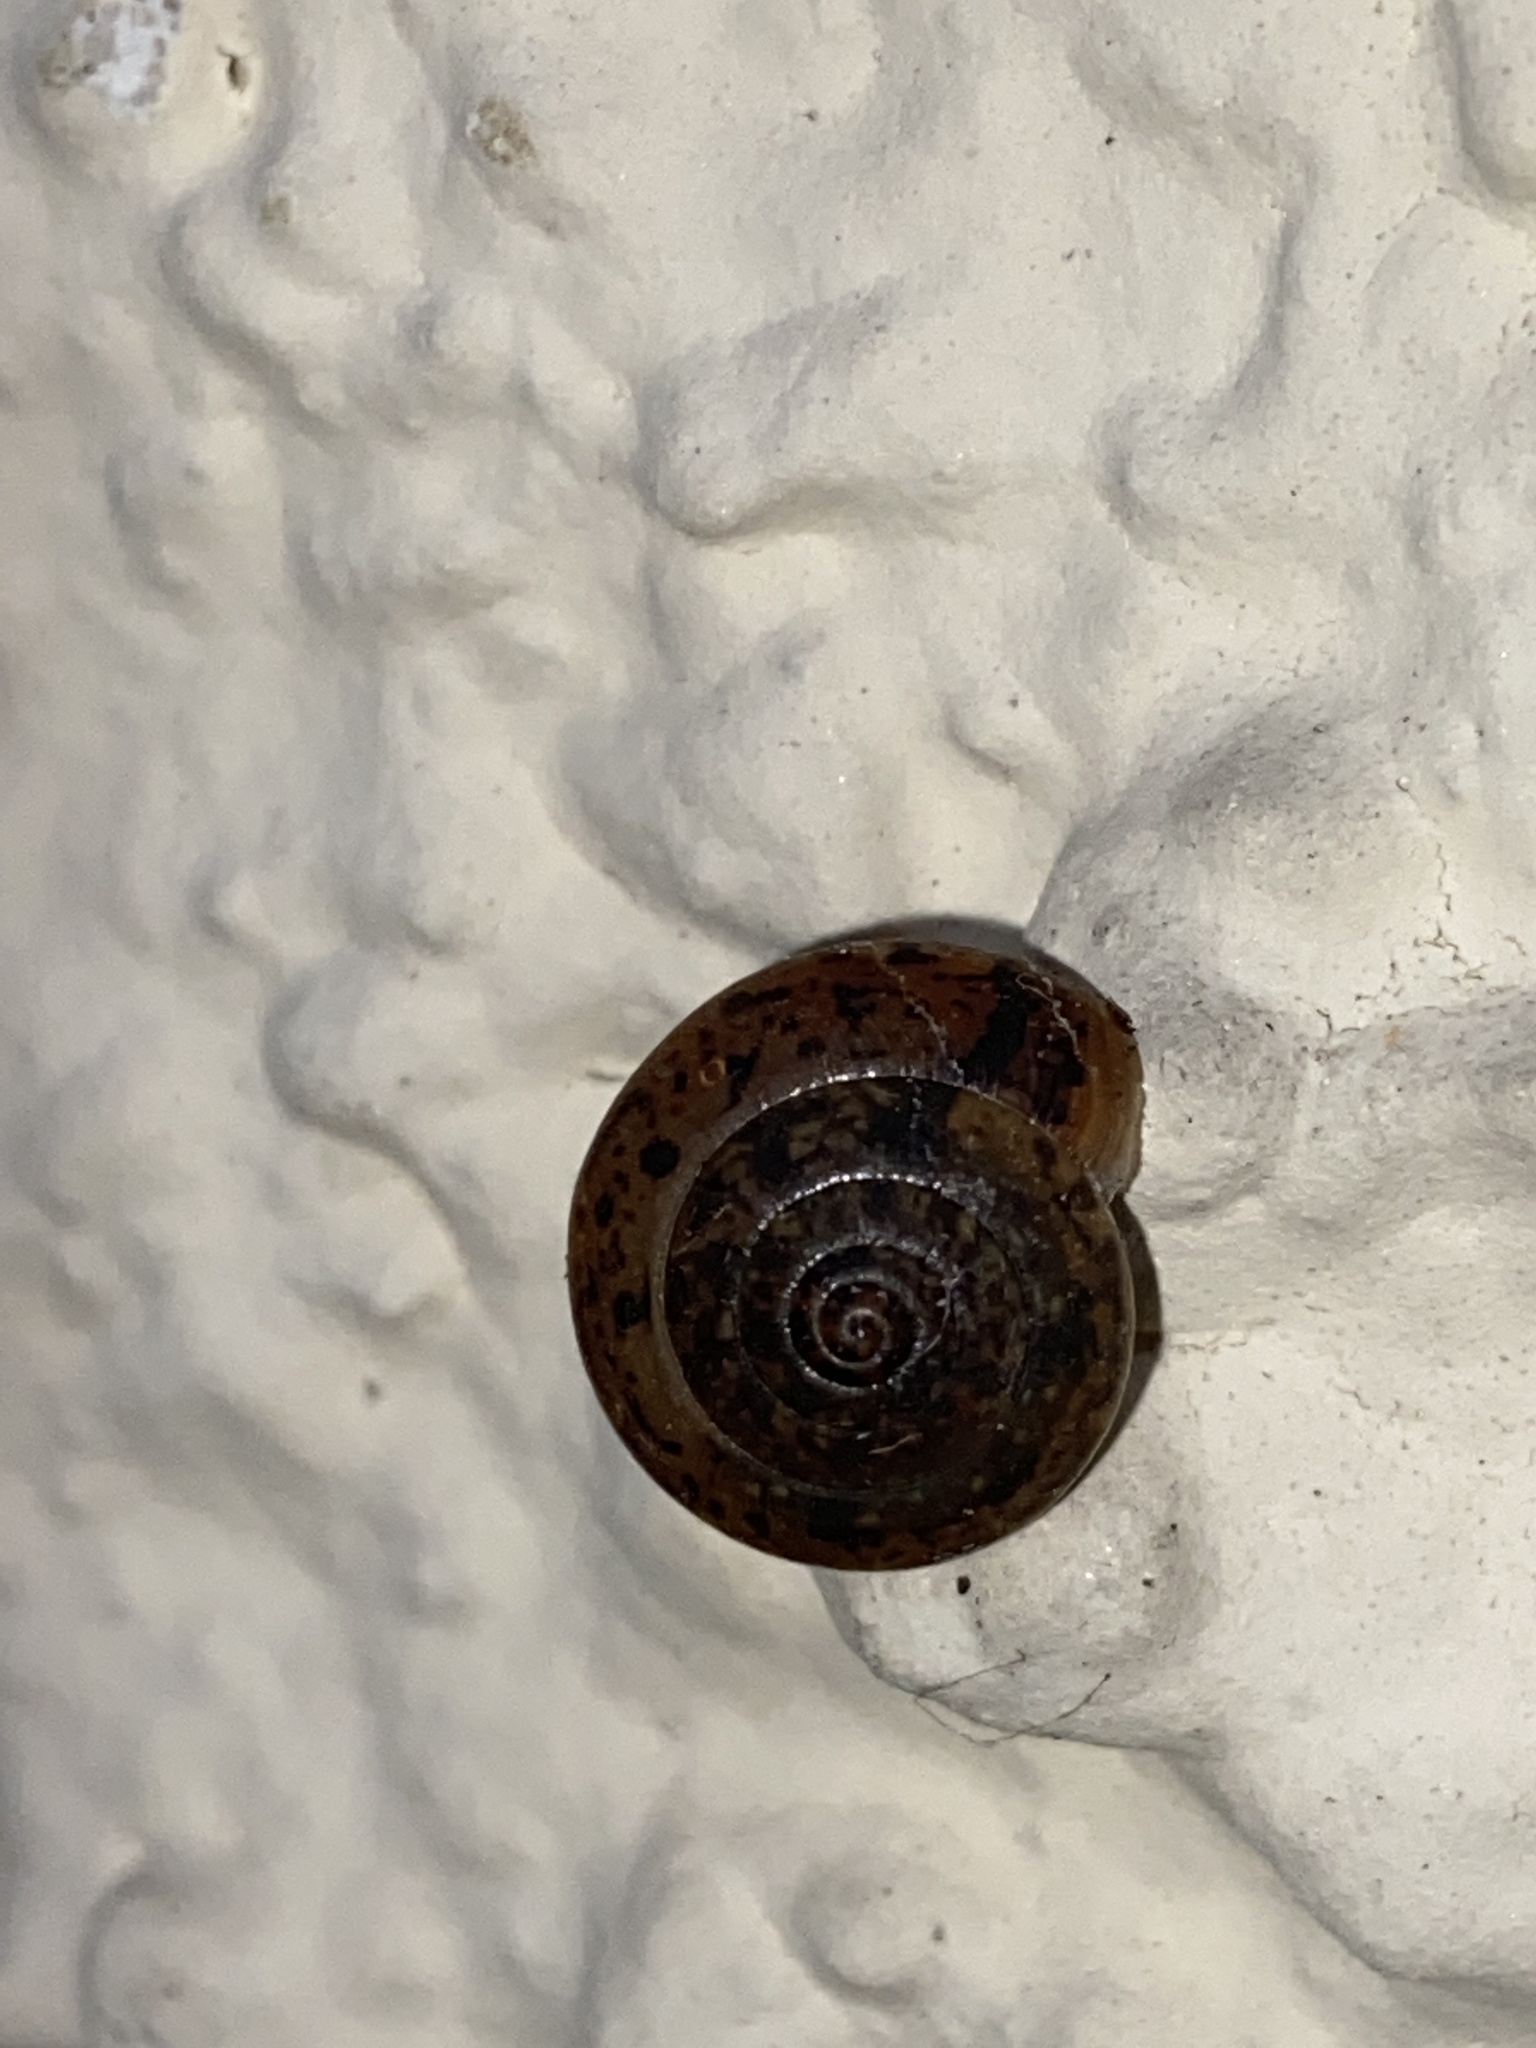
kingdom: Animalia
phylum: Mollusca
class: Gastropoda
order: Stylommatophora
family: Hygromiidae
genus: Hygromia
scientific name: Hygromia cinctella
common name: Girdled snail
